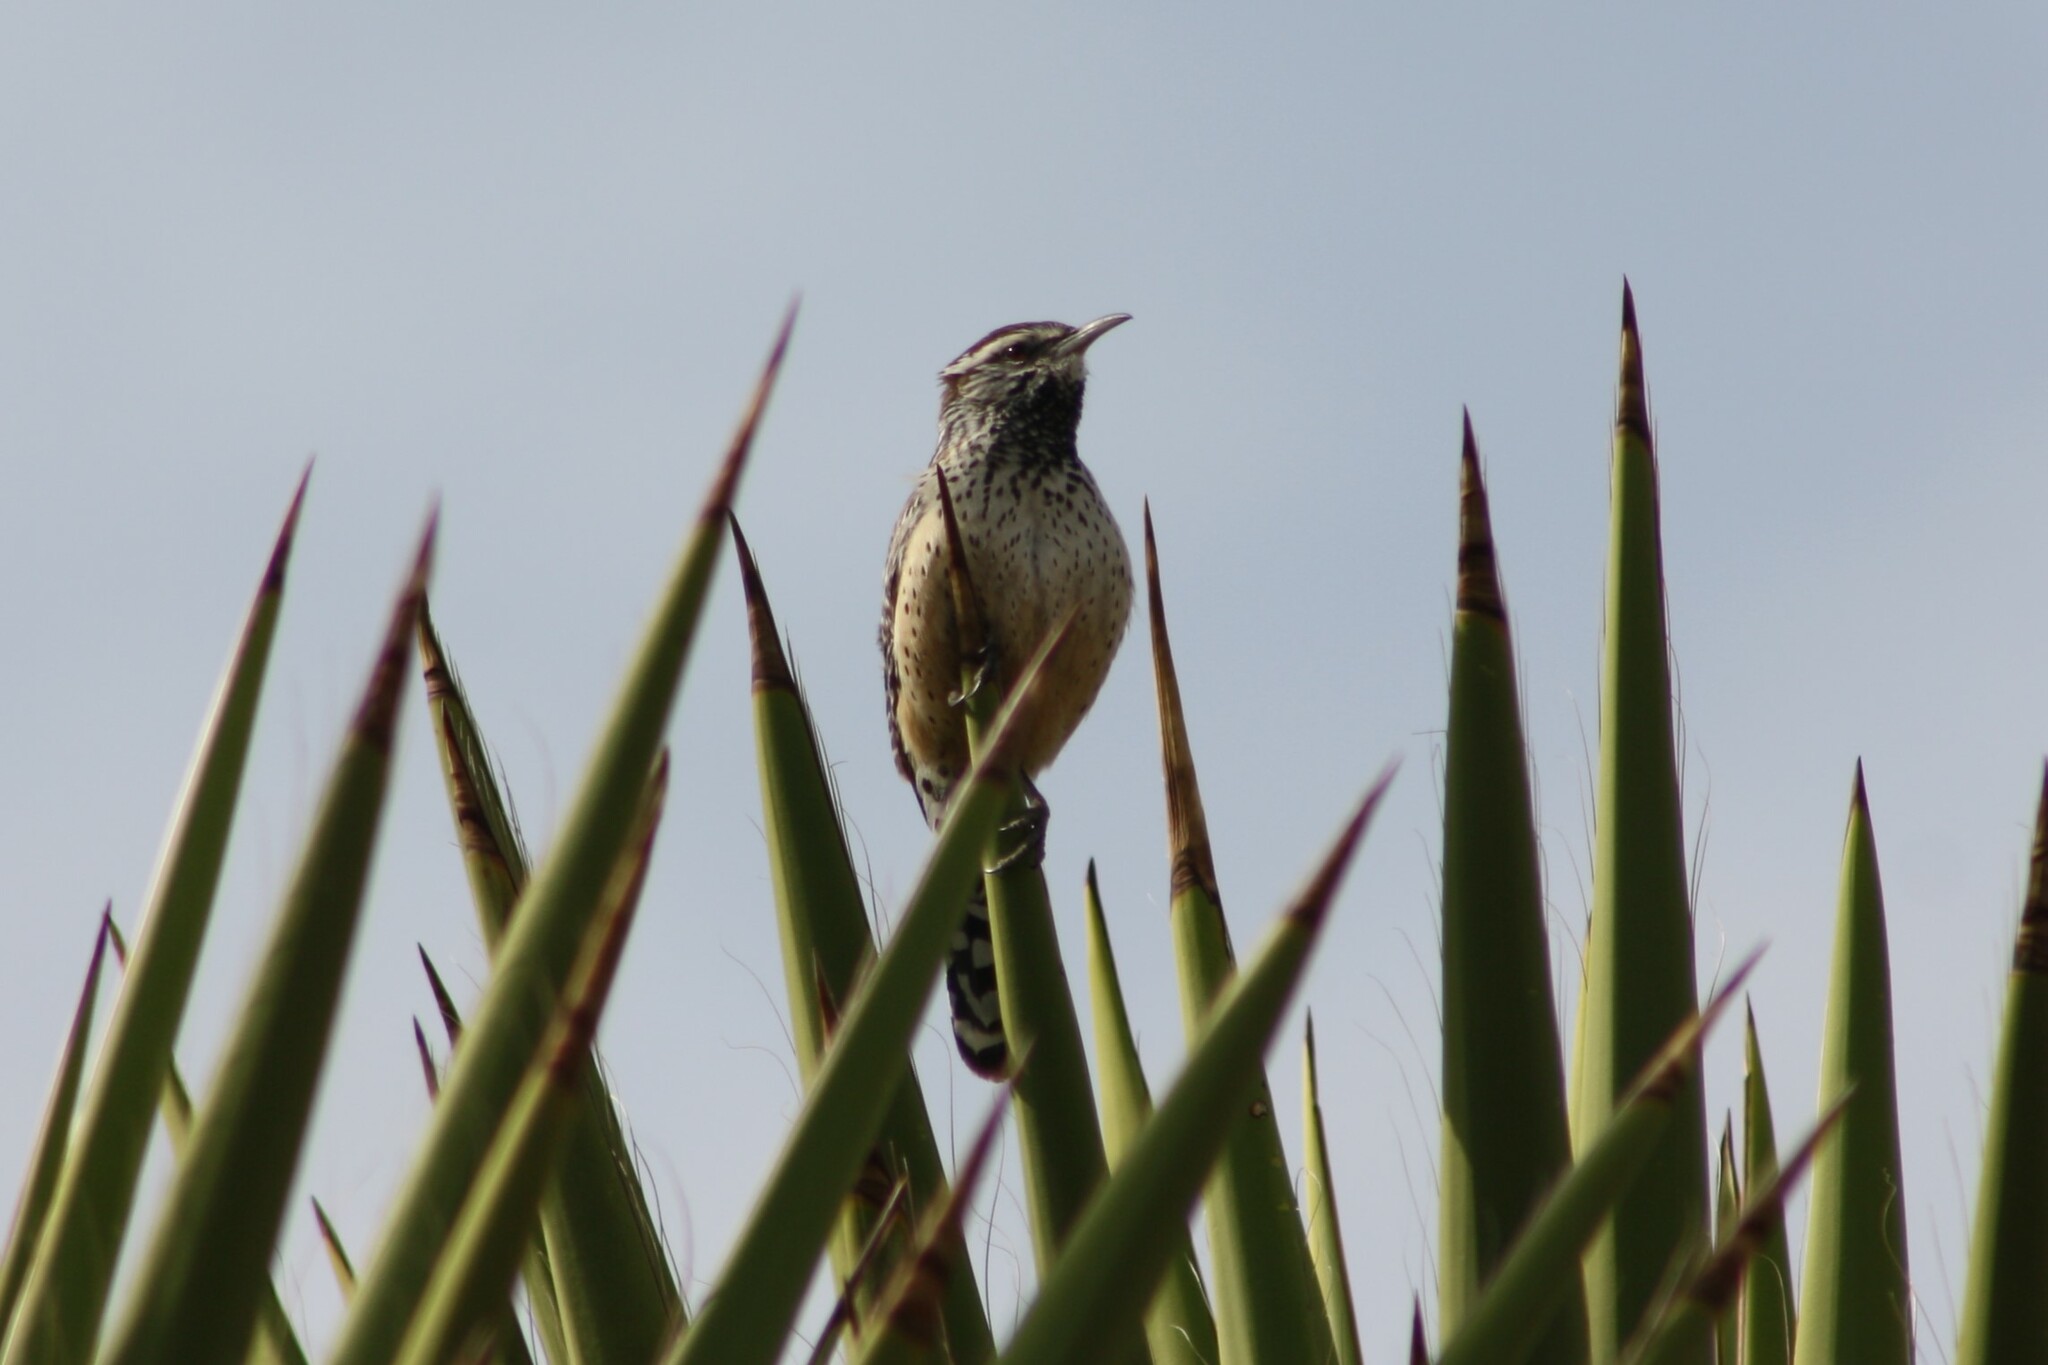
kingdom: Animalia
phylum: Chordata
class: Aves
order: Passeriformes
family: Troglodytidae
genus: Campylorhynchus
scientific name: Campylorhynchus brunneicapillus
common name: Cactus wren
